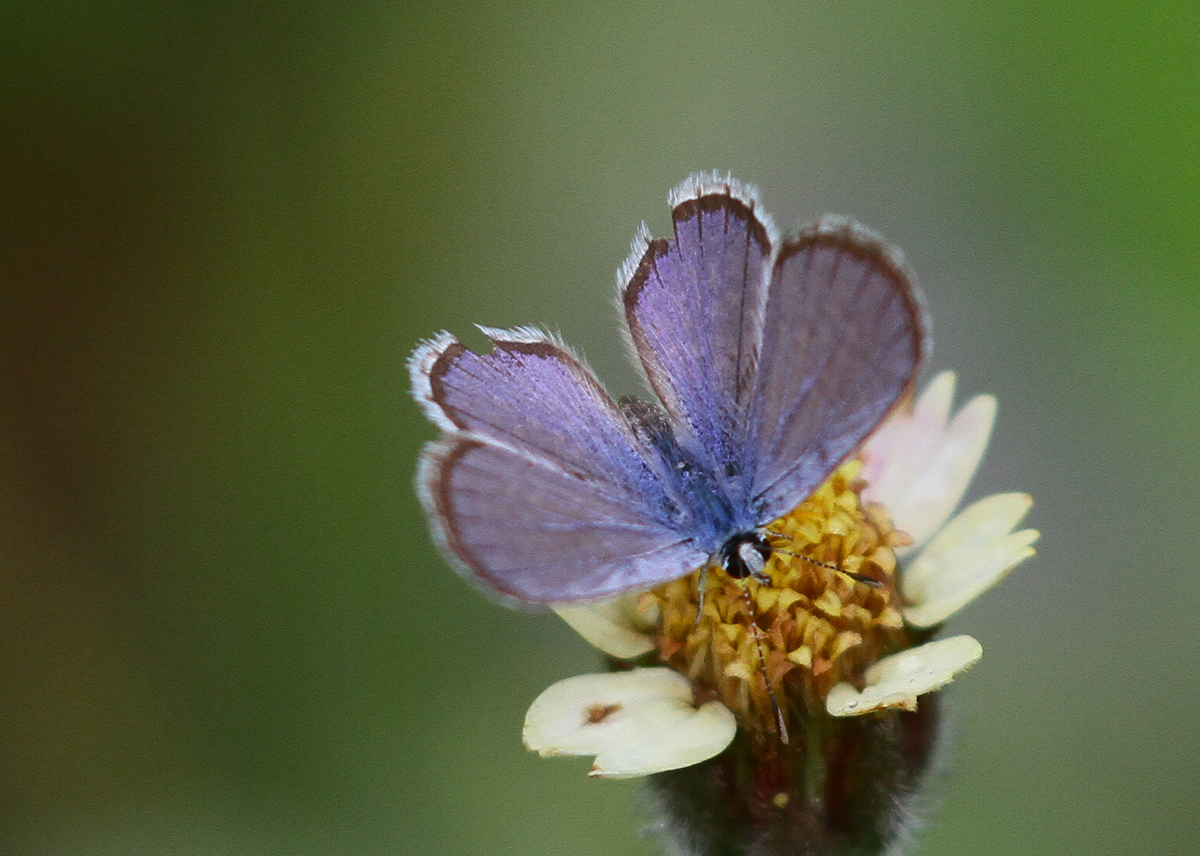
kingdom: Animalia
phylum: Arthropoda
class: Insecta
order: Lepidoptera
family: Lycaenidae
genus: Hemiargus
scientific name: Hemiargus hanno
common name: Common blue
